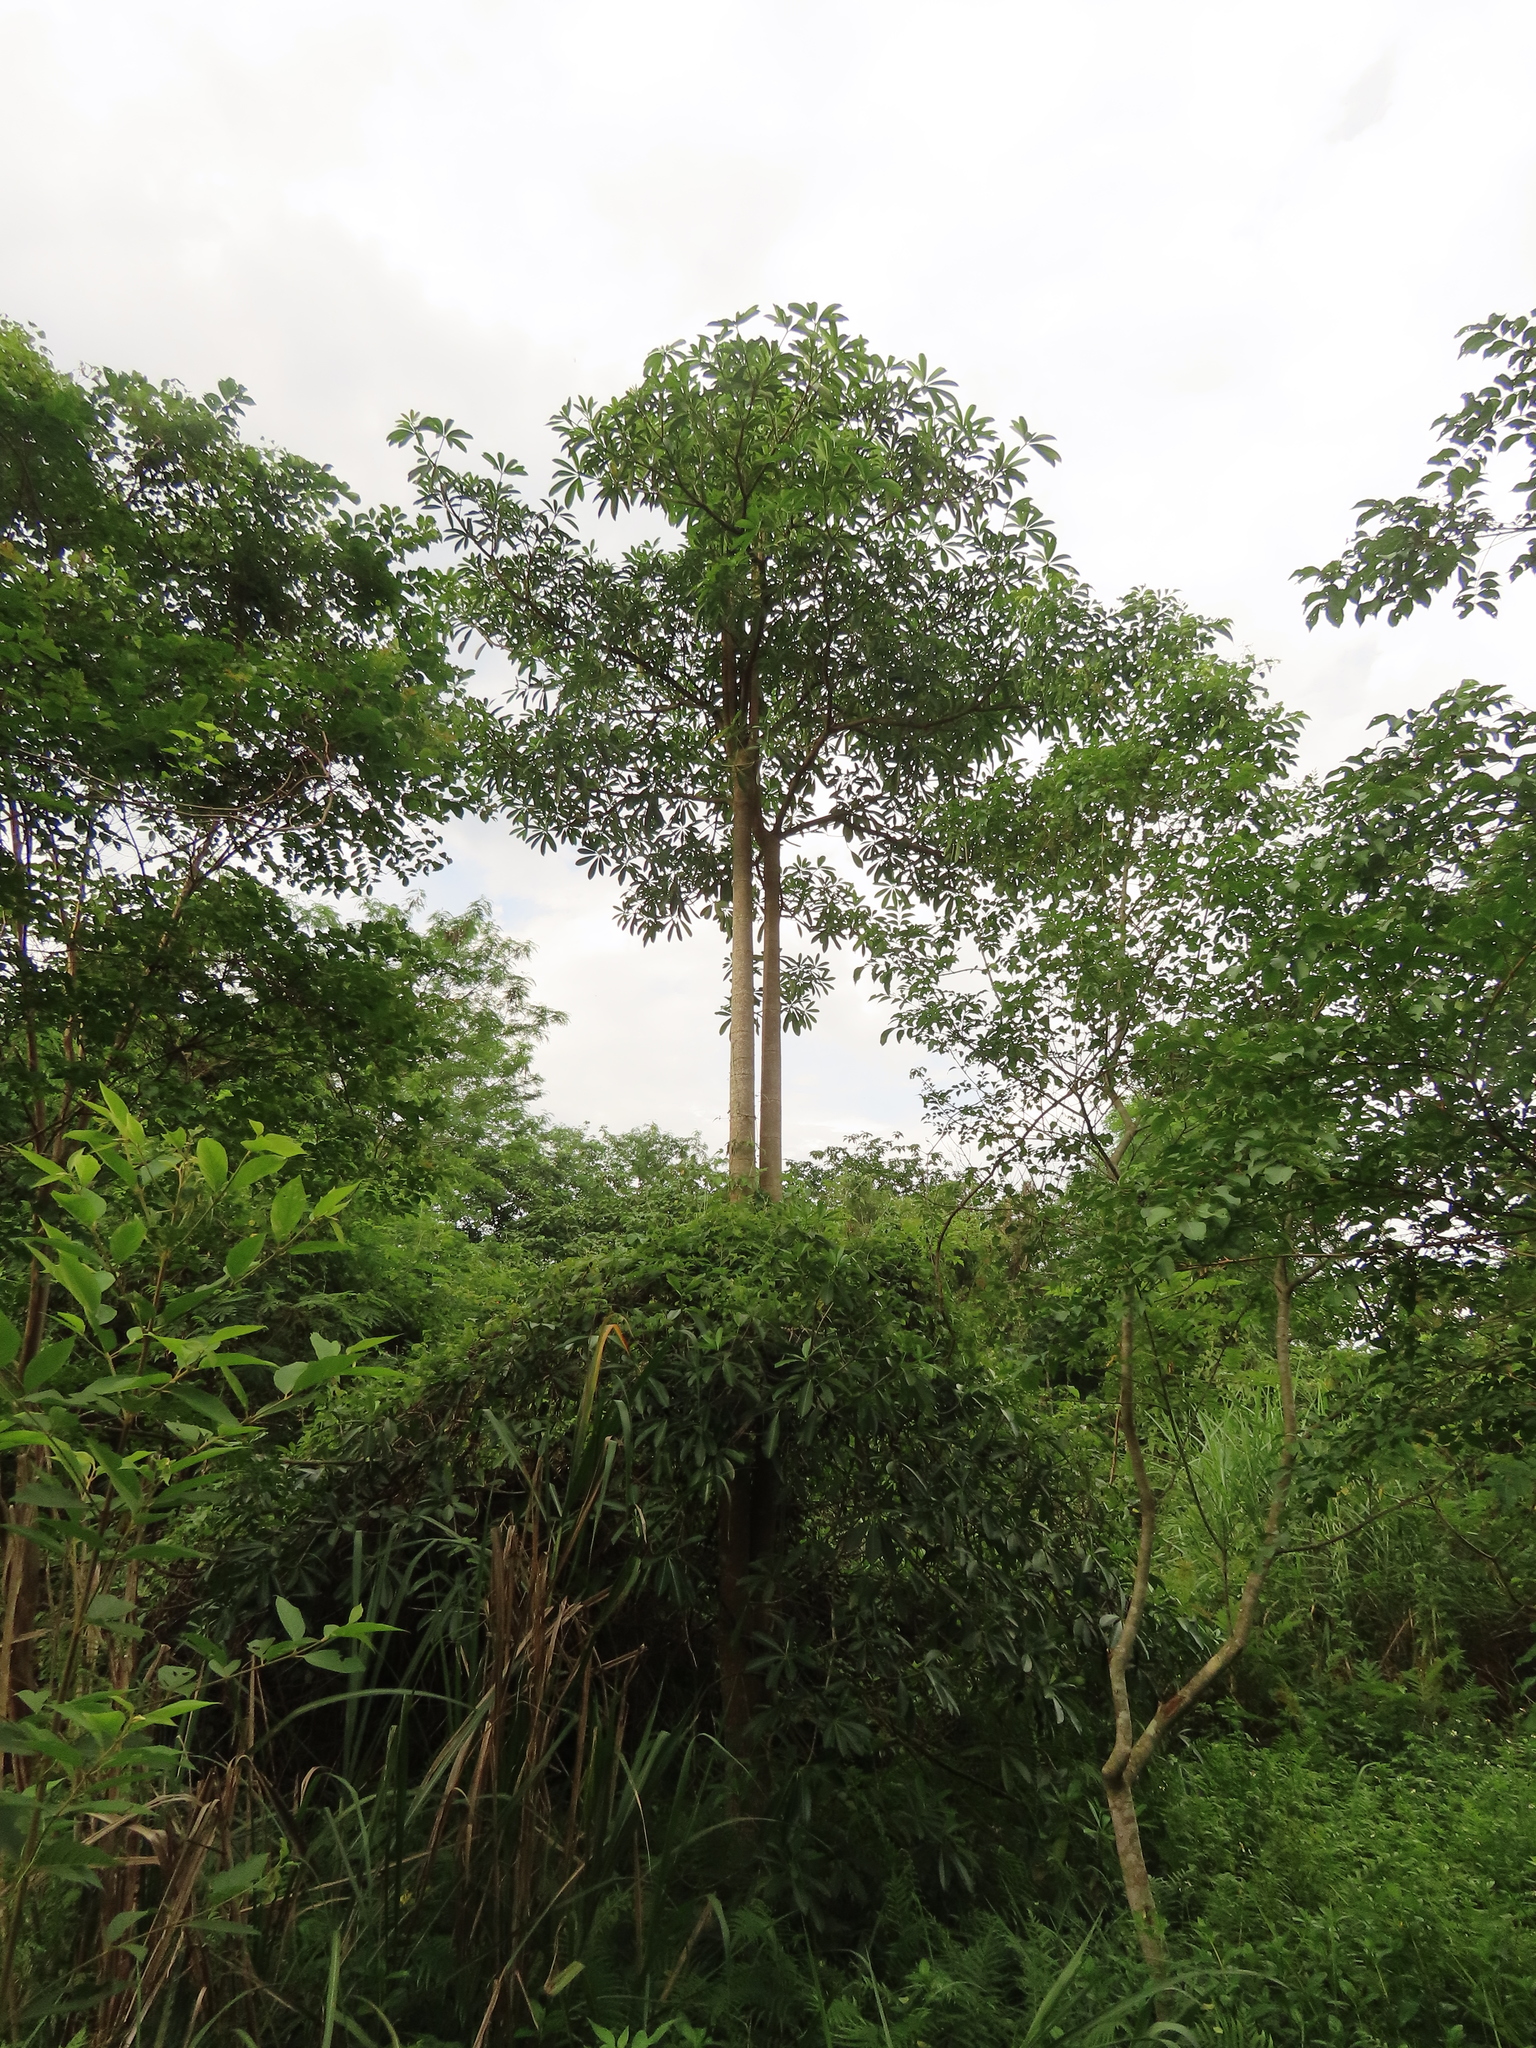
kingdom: Plantae
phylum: Tracheophyta
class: Magnoliopsida
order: Gentianales
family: Apocynaceae
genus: Alstonia
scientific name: Alstonia scholaris
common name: White cheesewood
